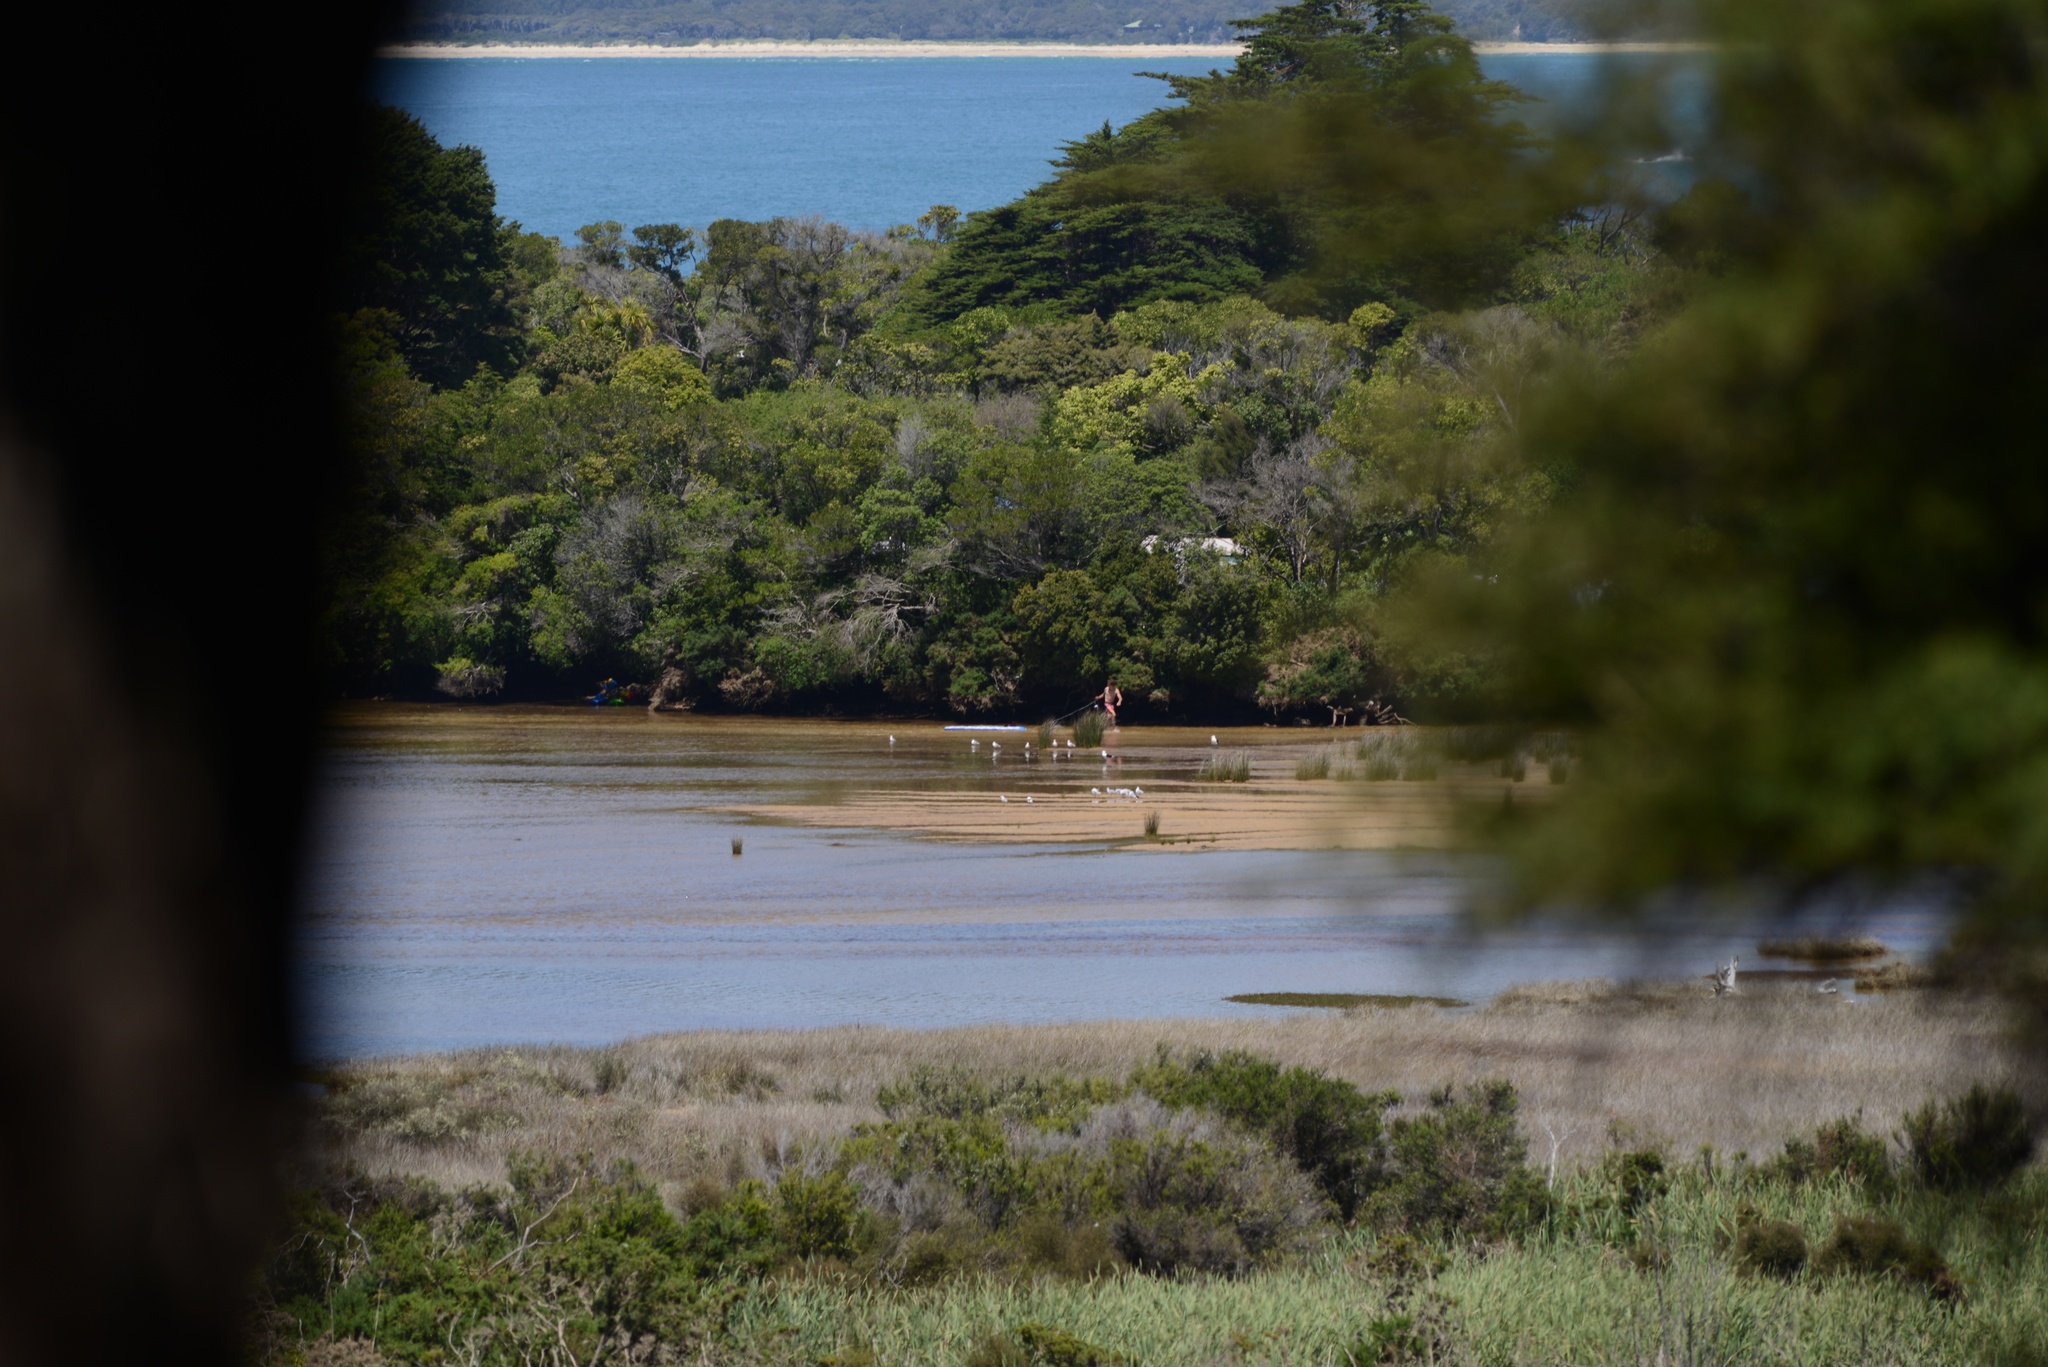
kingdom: Animalia
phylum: Chordata
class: Aves
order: Charadriiformes
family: Laridae
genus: Larus
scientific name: Larus dominicanus
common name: Kelp gull
